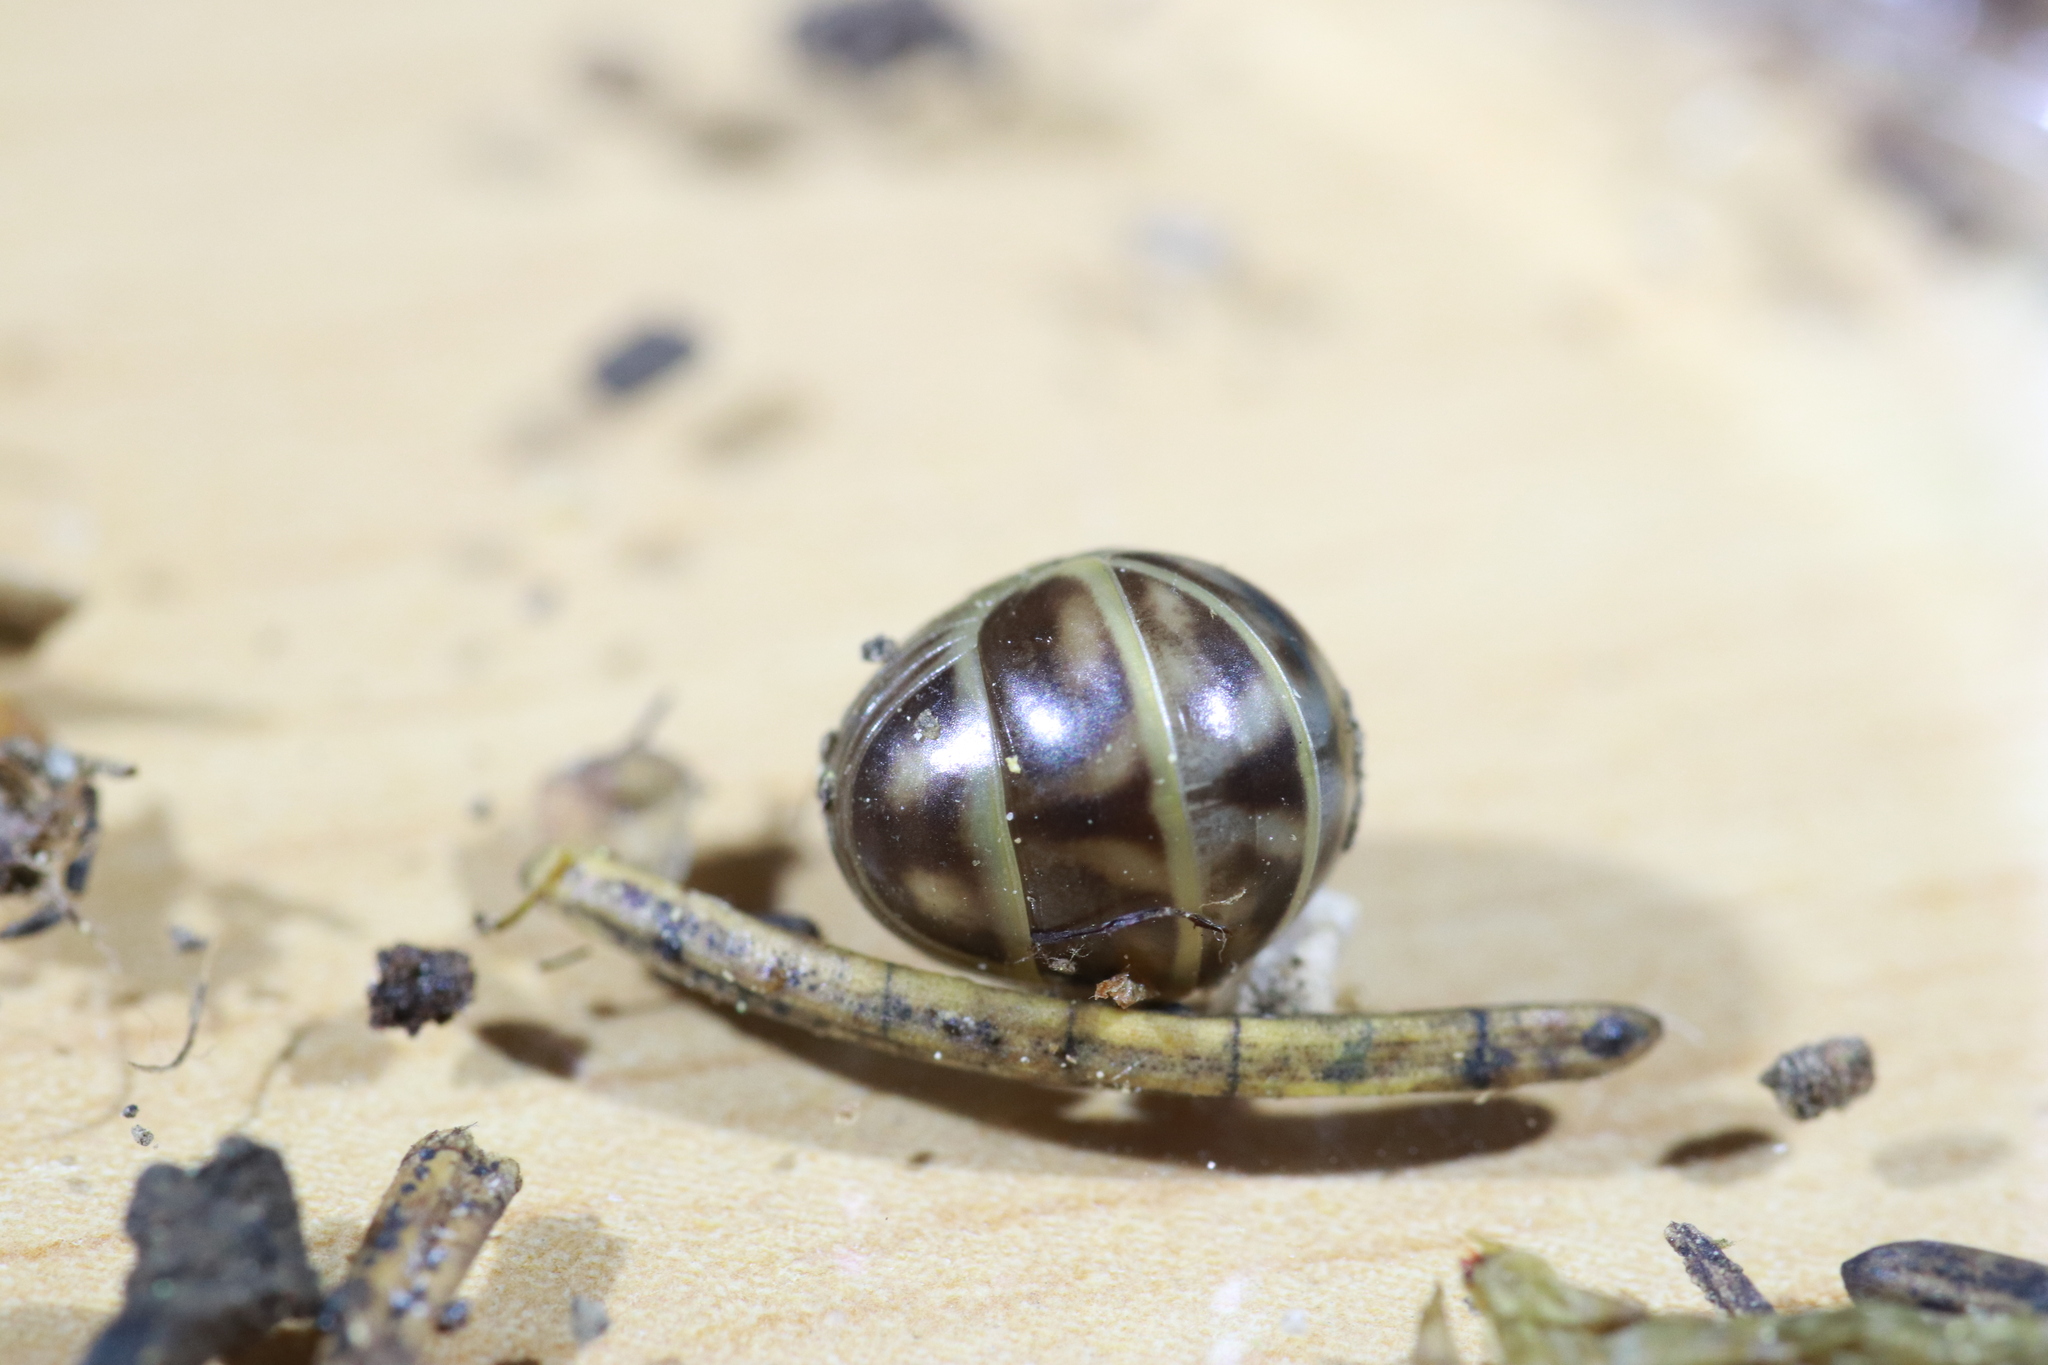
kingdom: Animalia
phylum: Arthropoda
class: Diplopoda
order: Glomerida
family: Glomeridae
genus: Glomeris
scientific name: Glomeris marginata
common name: Bordered pill millipede
